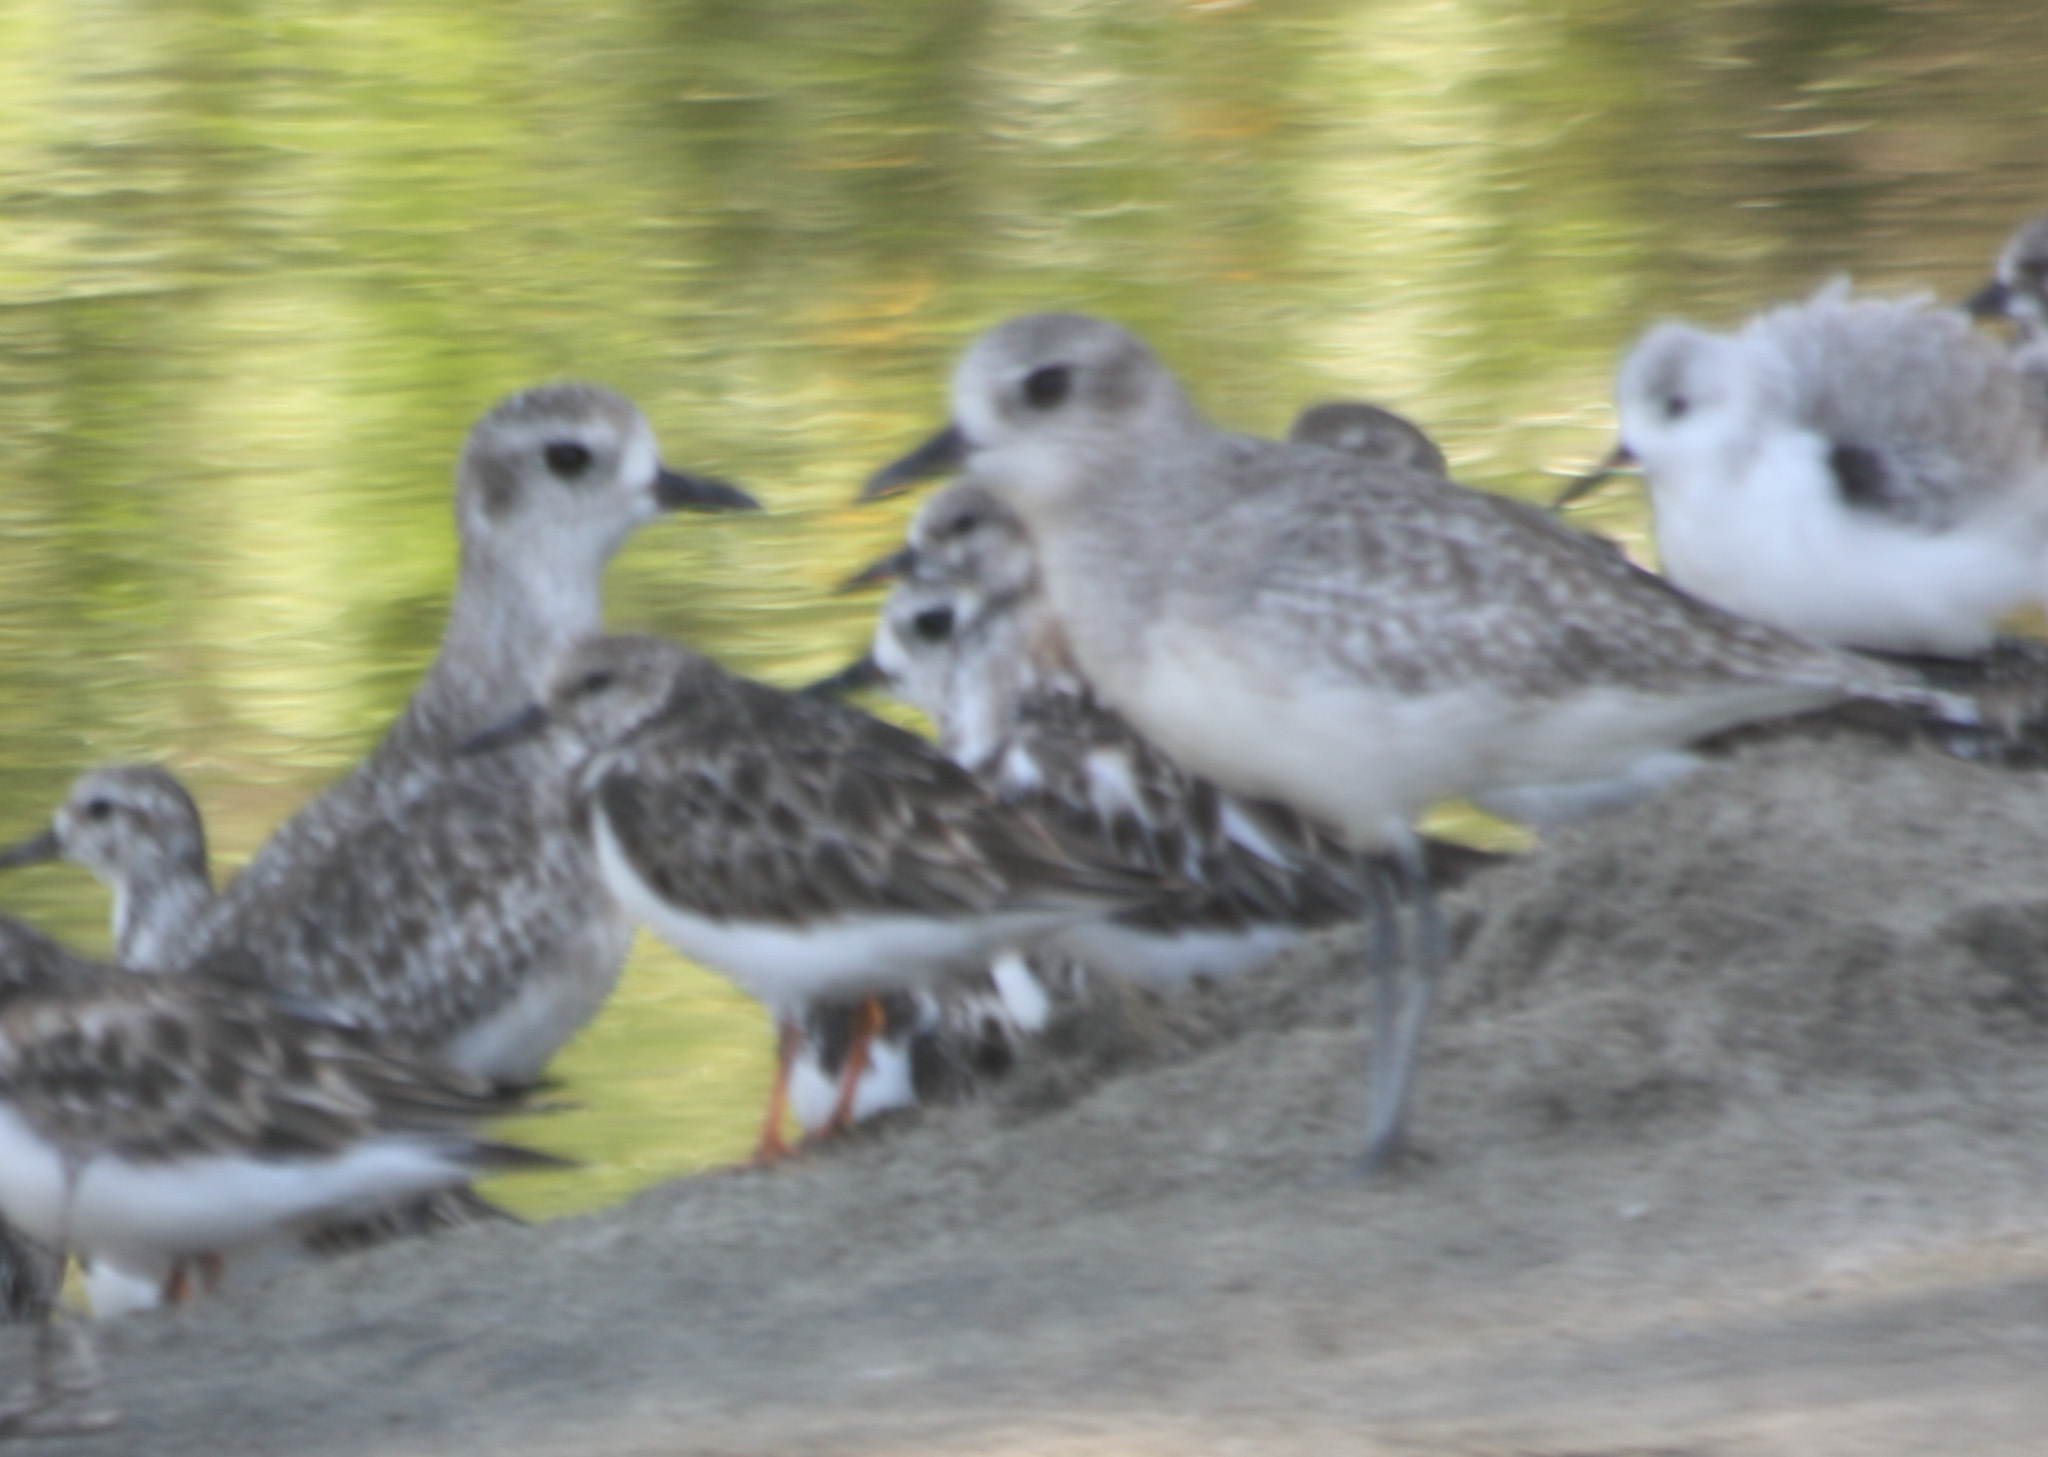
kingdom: Animalia
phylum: Chordata
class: Aves
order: Charadriiformes
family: Charadriidae
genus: Pluvialis
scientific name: Pluvialis squatarola
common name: Grey plover
